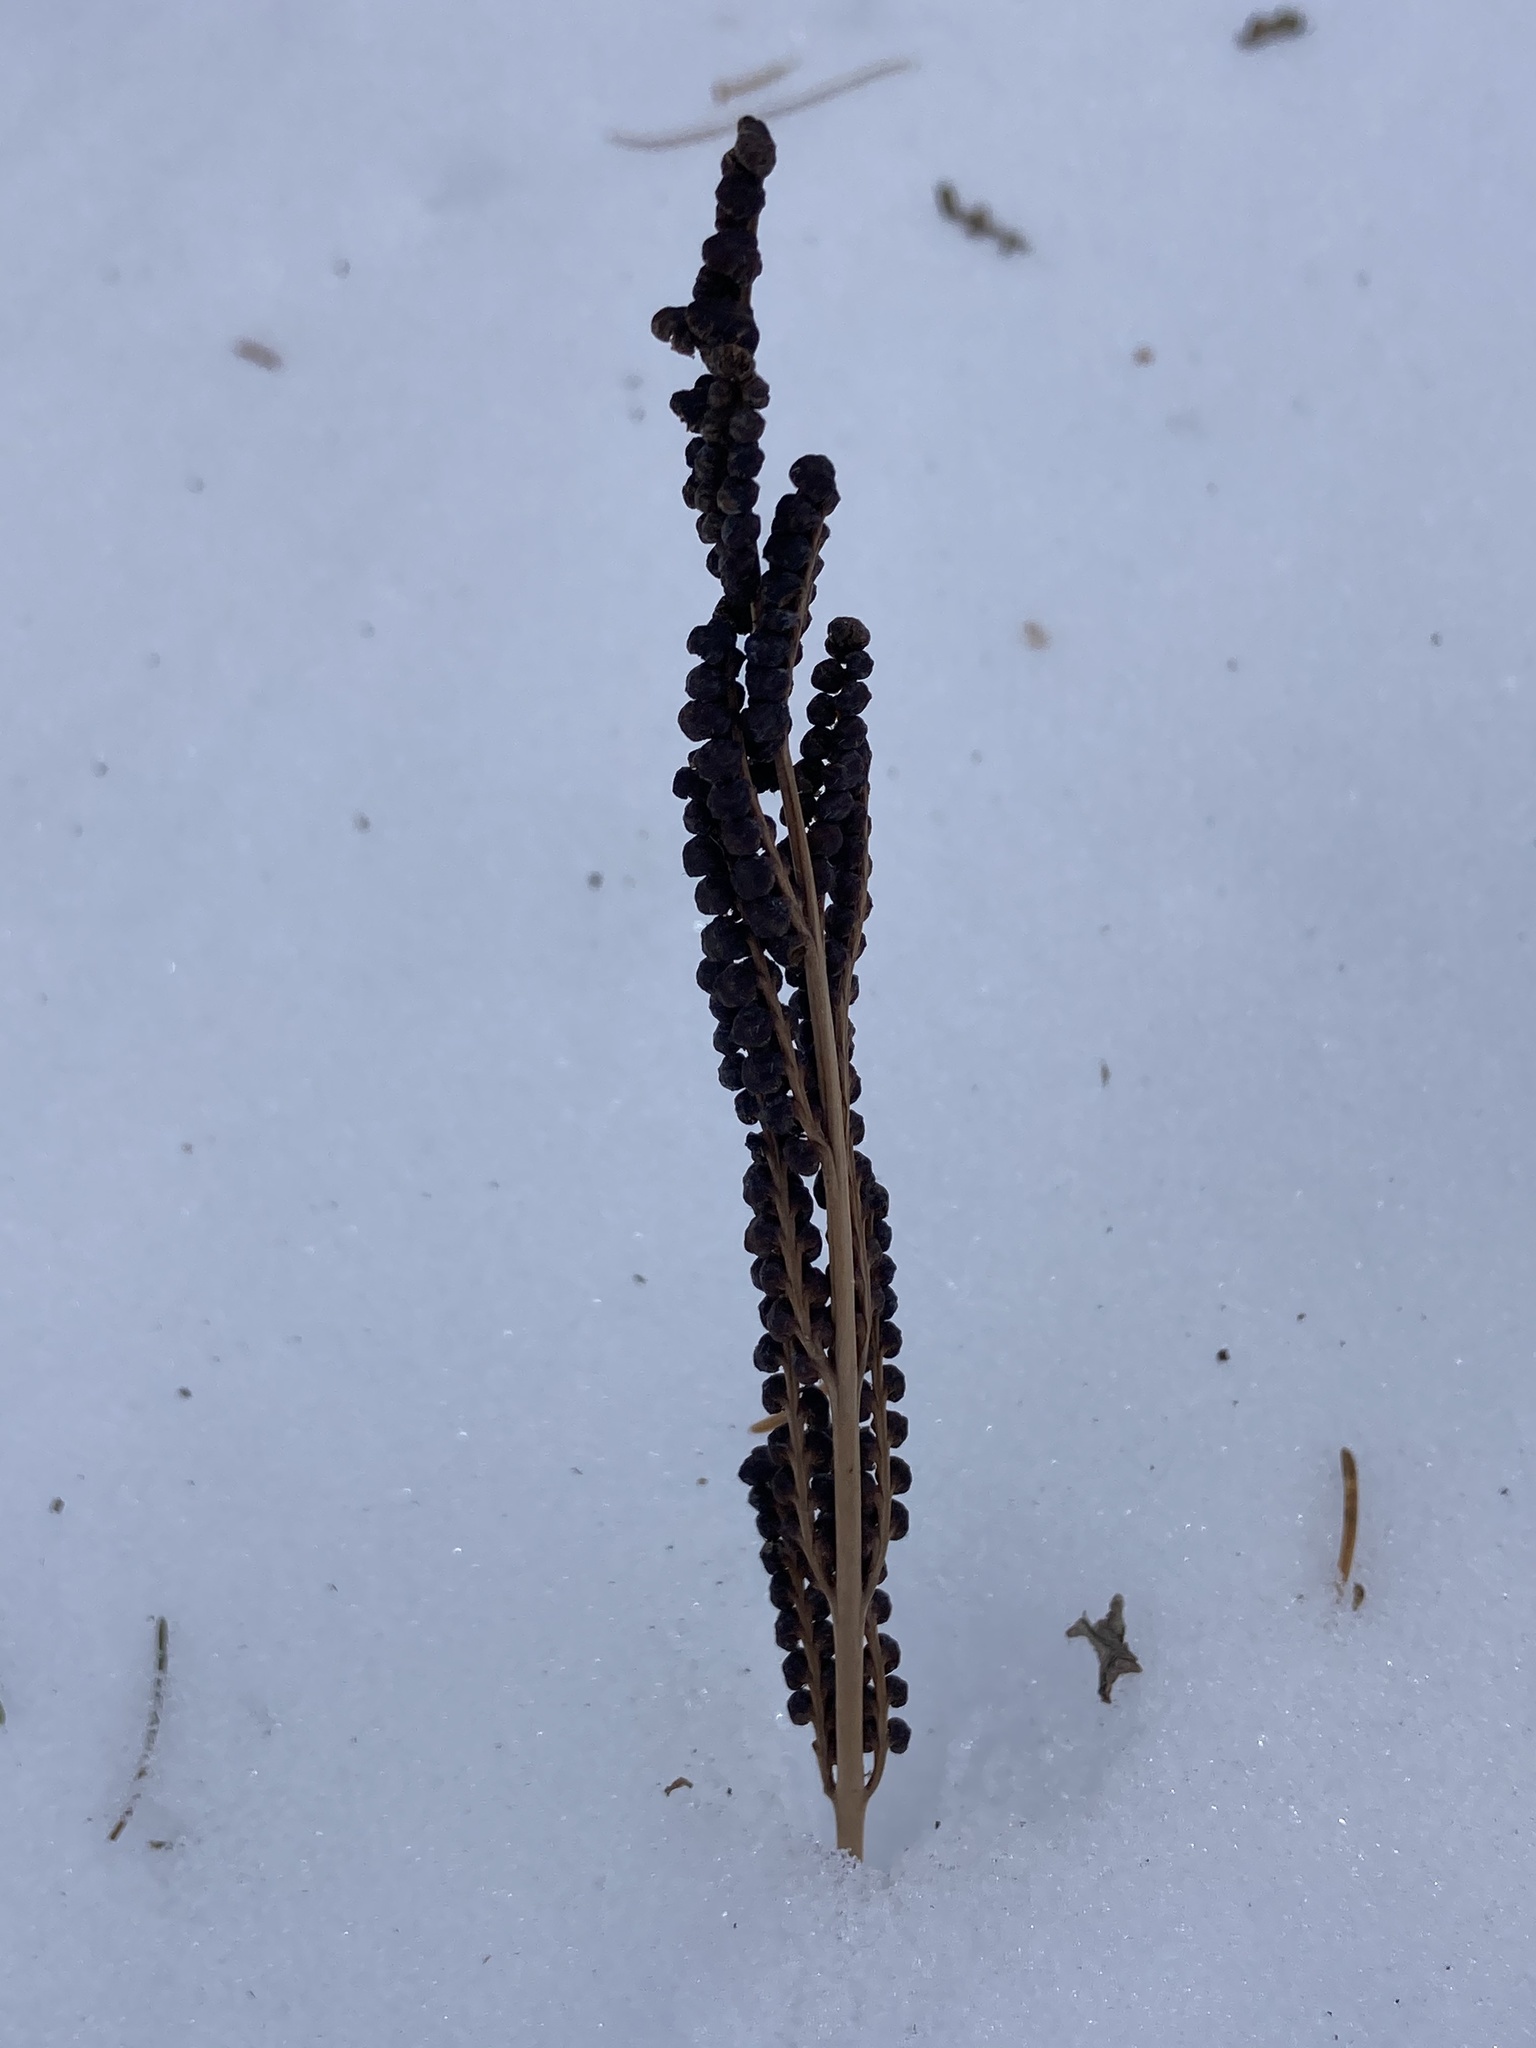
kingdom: Plantae
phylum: Tracheophyta
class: Polypodiopsida
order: Polypodiales
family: Onocleaceae
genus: Onoclea
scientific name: Onoclea sensibilis
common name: Sensitive fern
